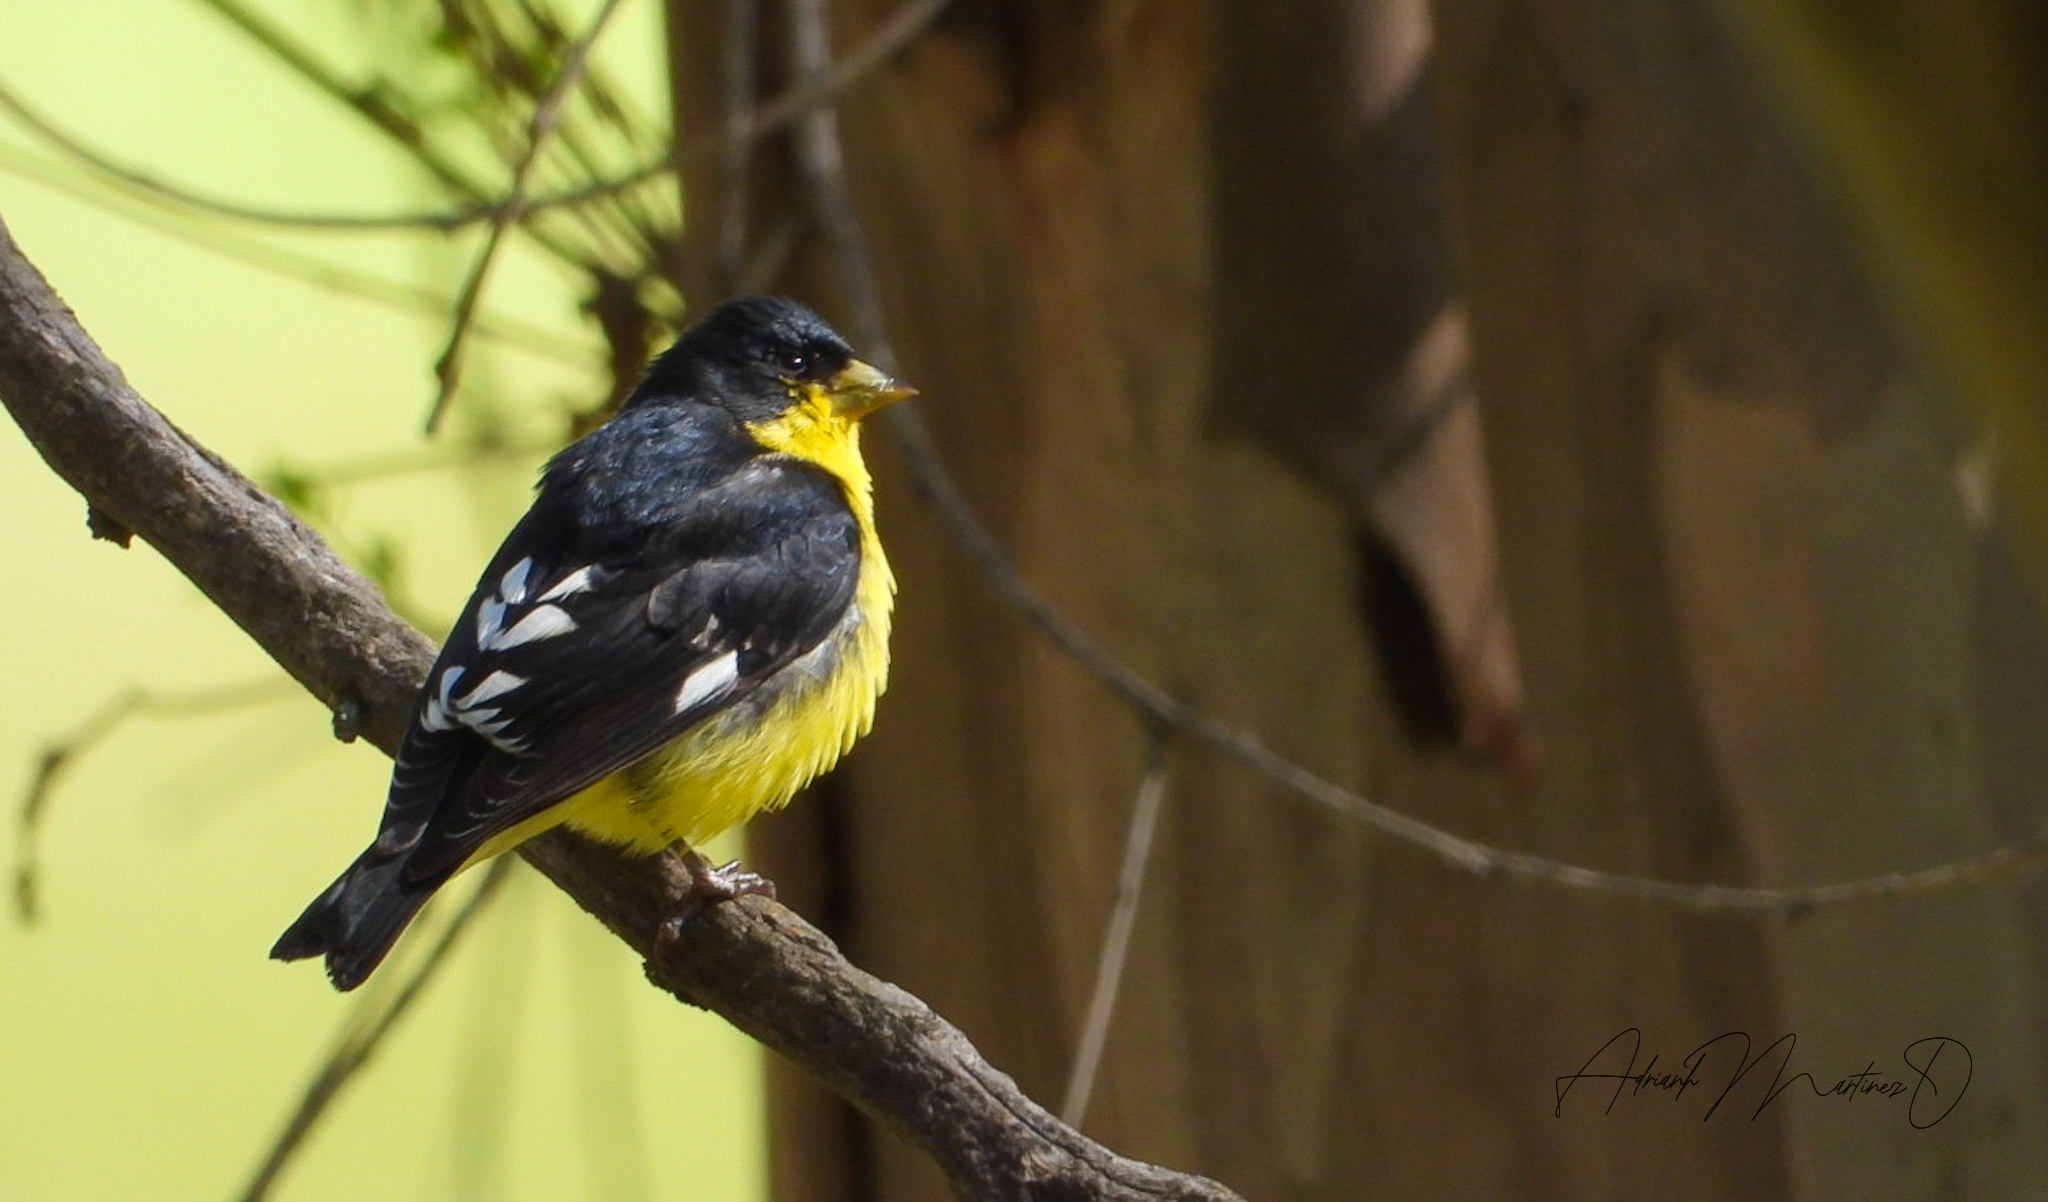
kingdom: Animalia
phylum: Chordata
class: Aves
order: Passeriformes
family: Fringillidae
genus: Spinus
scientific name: Spinus psaltria
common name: Lesser goldfinch
